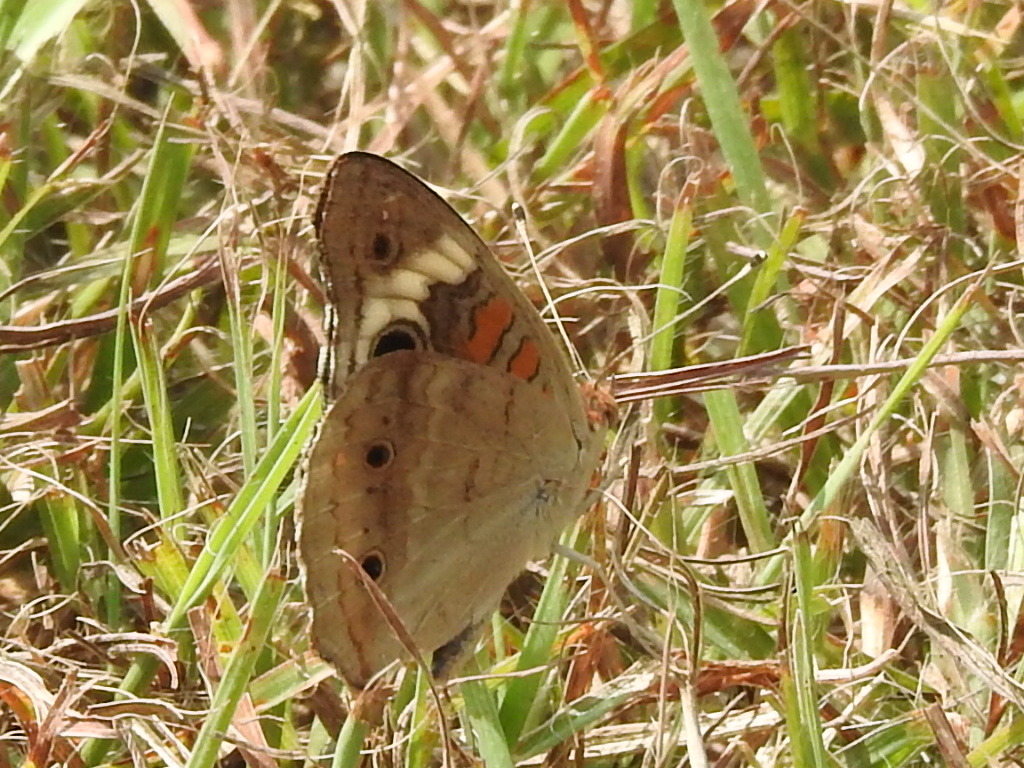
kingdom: Animalia
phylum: Arthropoda
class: Insecta
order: Lepidoptera
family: Nymphalidae
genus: Junonia
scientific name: Junonia coenia
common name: Common buckeye
